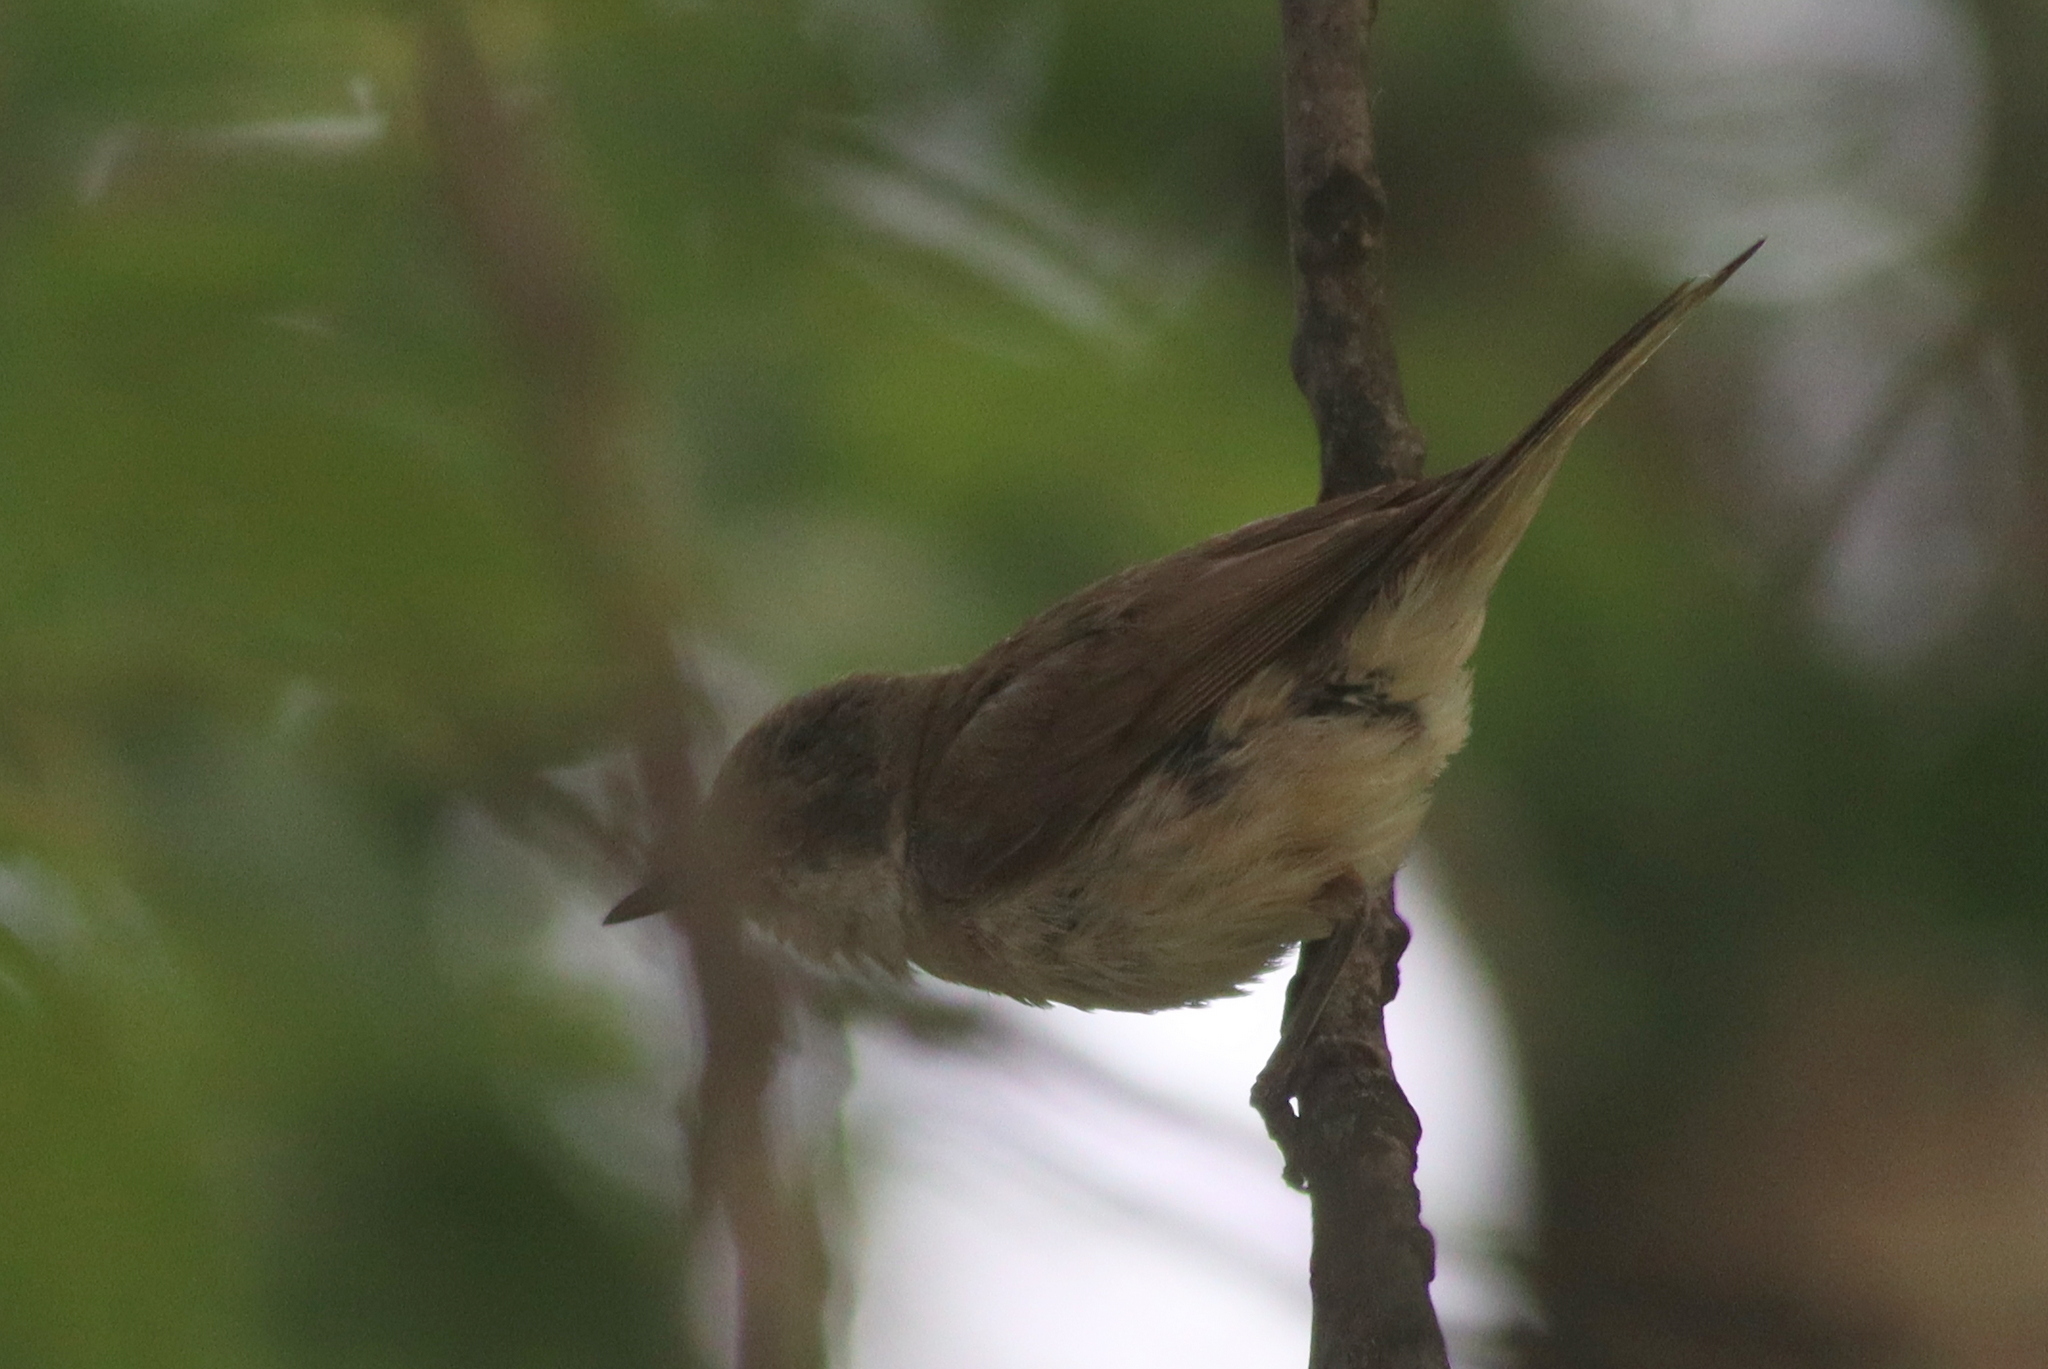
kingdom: Animalia
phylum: Chordata
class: Aves
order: Passeriformes
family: Sylviidae
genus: Sylvia
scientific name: Sylvia curruca
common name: Lesser whitethroat
